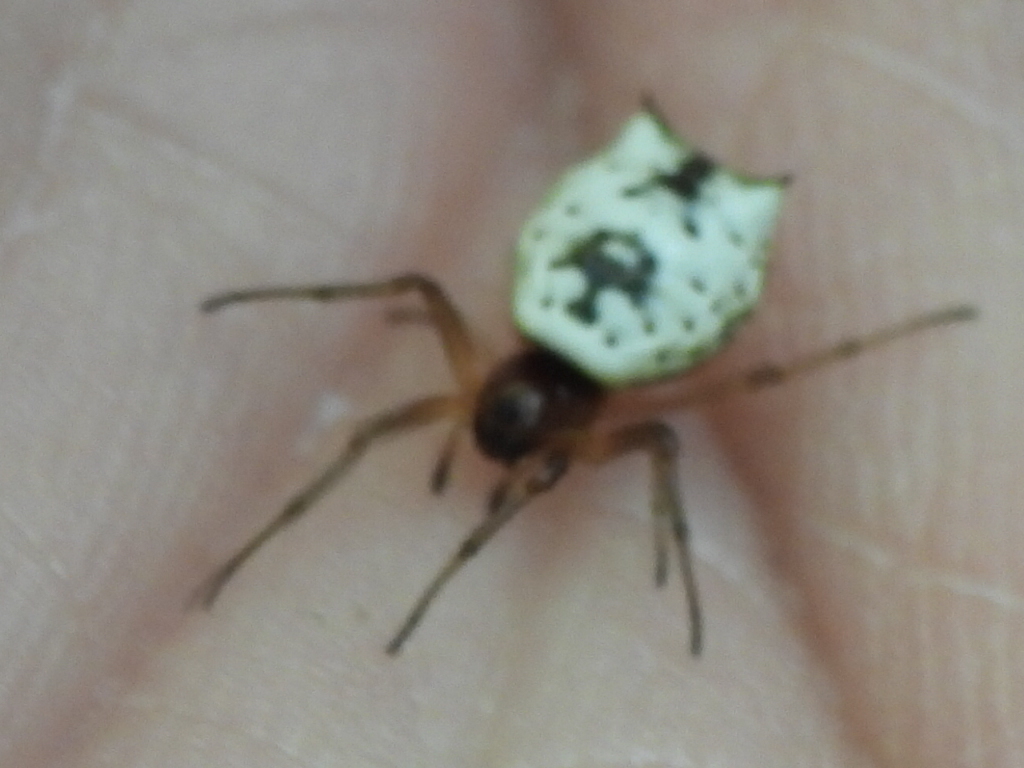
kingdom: Animalia
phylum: Arthropoda
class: Arachnida
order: Araneae
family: Araneidae
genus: Micrathena
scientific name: Micrathena mitrata
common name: Orb weavers
